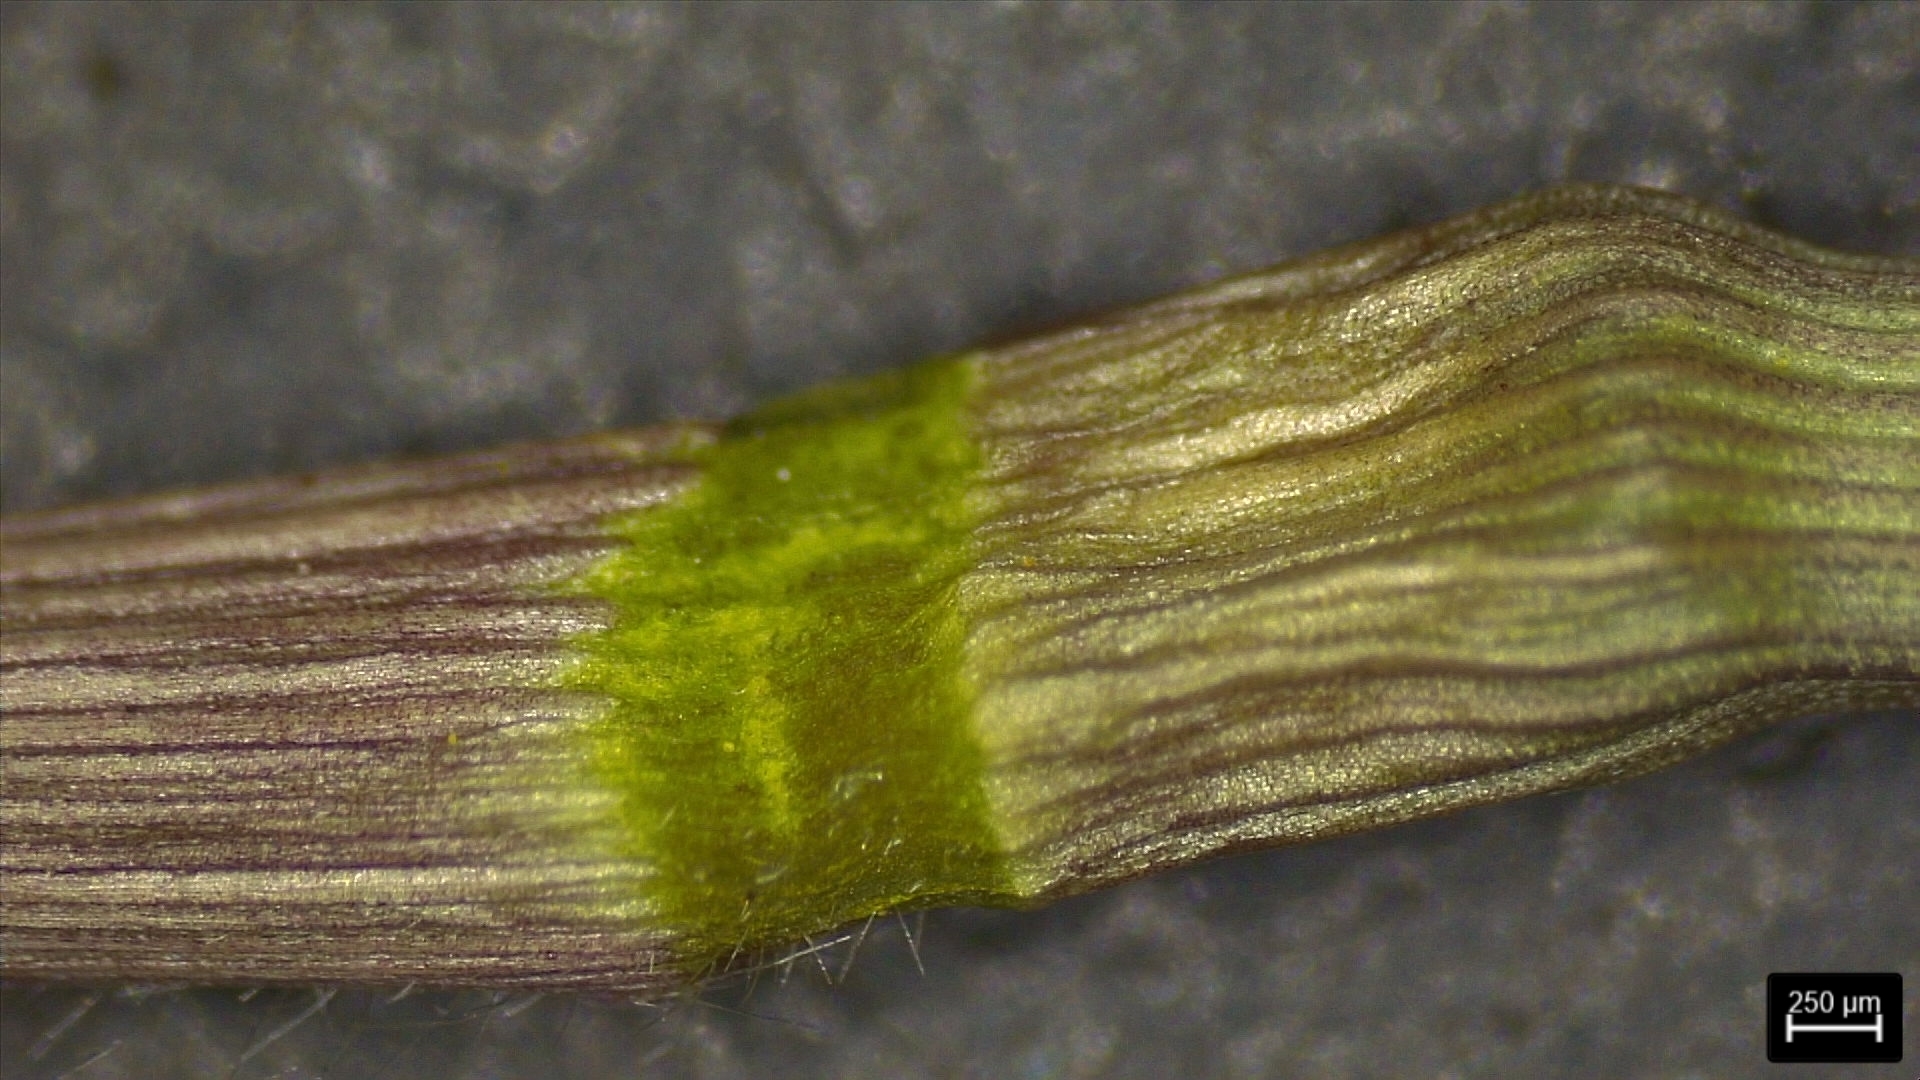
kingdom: Plantae
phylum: Tracheophyta
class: Liliopsida
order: Poales
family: Poaceae
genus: Dichanthelium
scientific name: Dichanthelium commutatum
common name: Variable witchgrass
